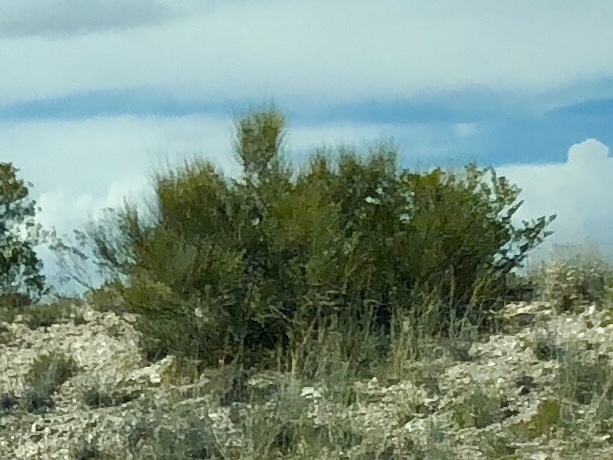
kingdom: Plantae
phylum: Tracheophyta
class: Gnetopsida
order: Ephedrales
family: Ephedraceae
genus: Ephedra
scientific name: Ephedra trifurca
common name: Mexican-tea
